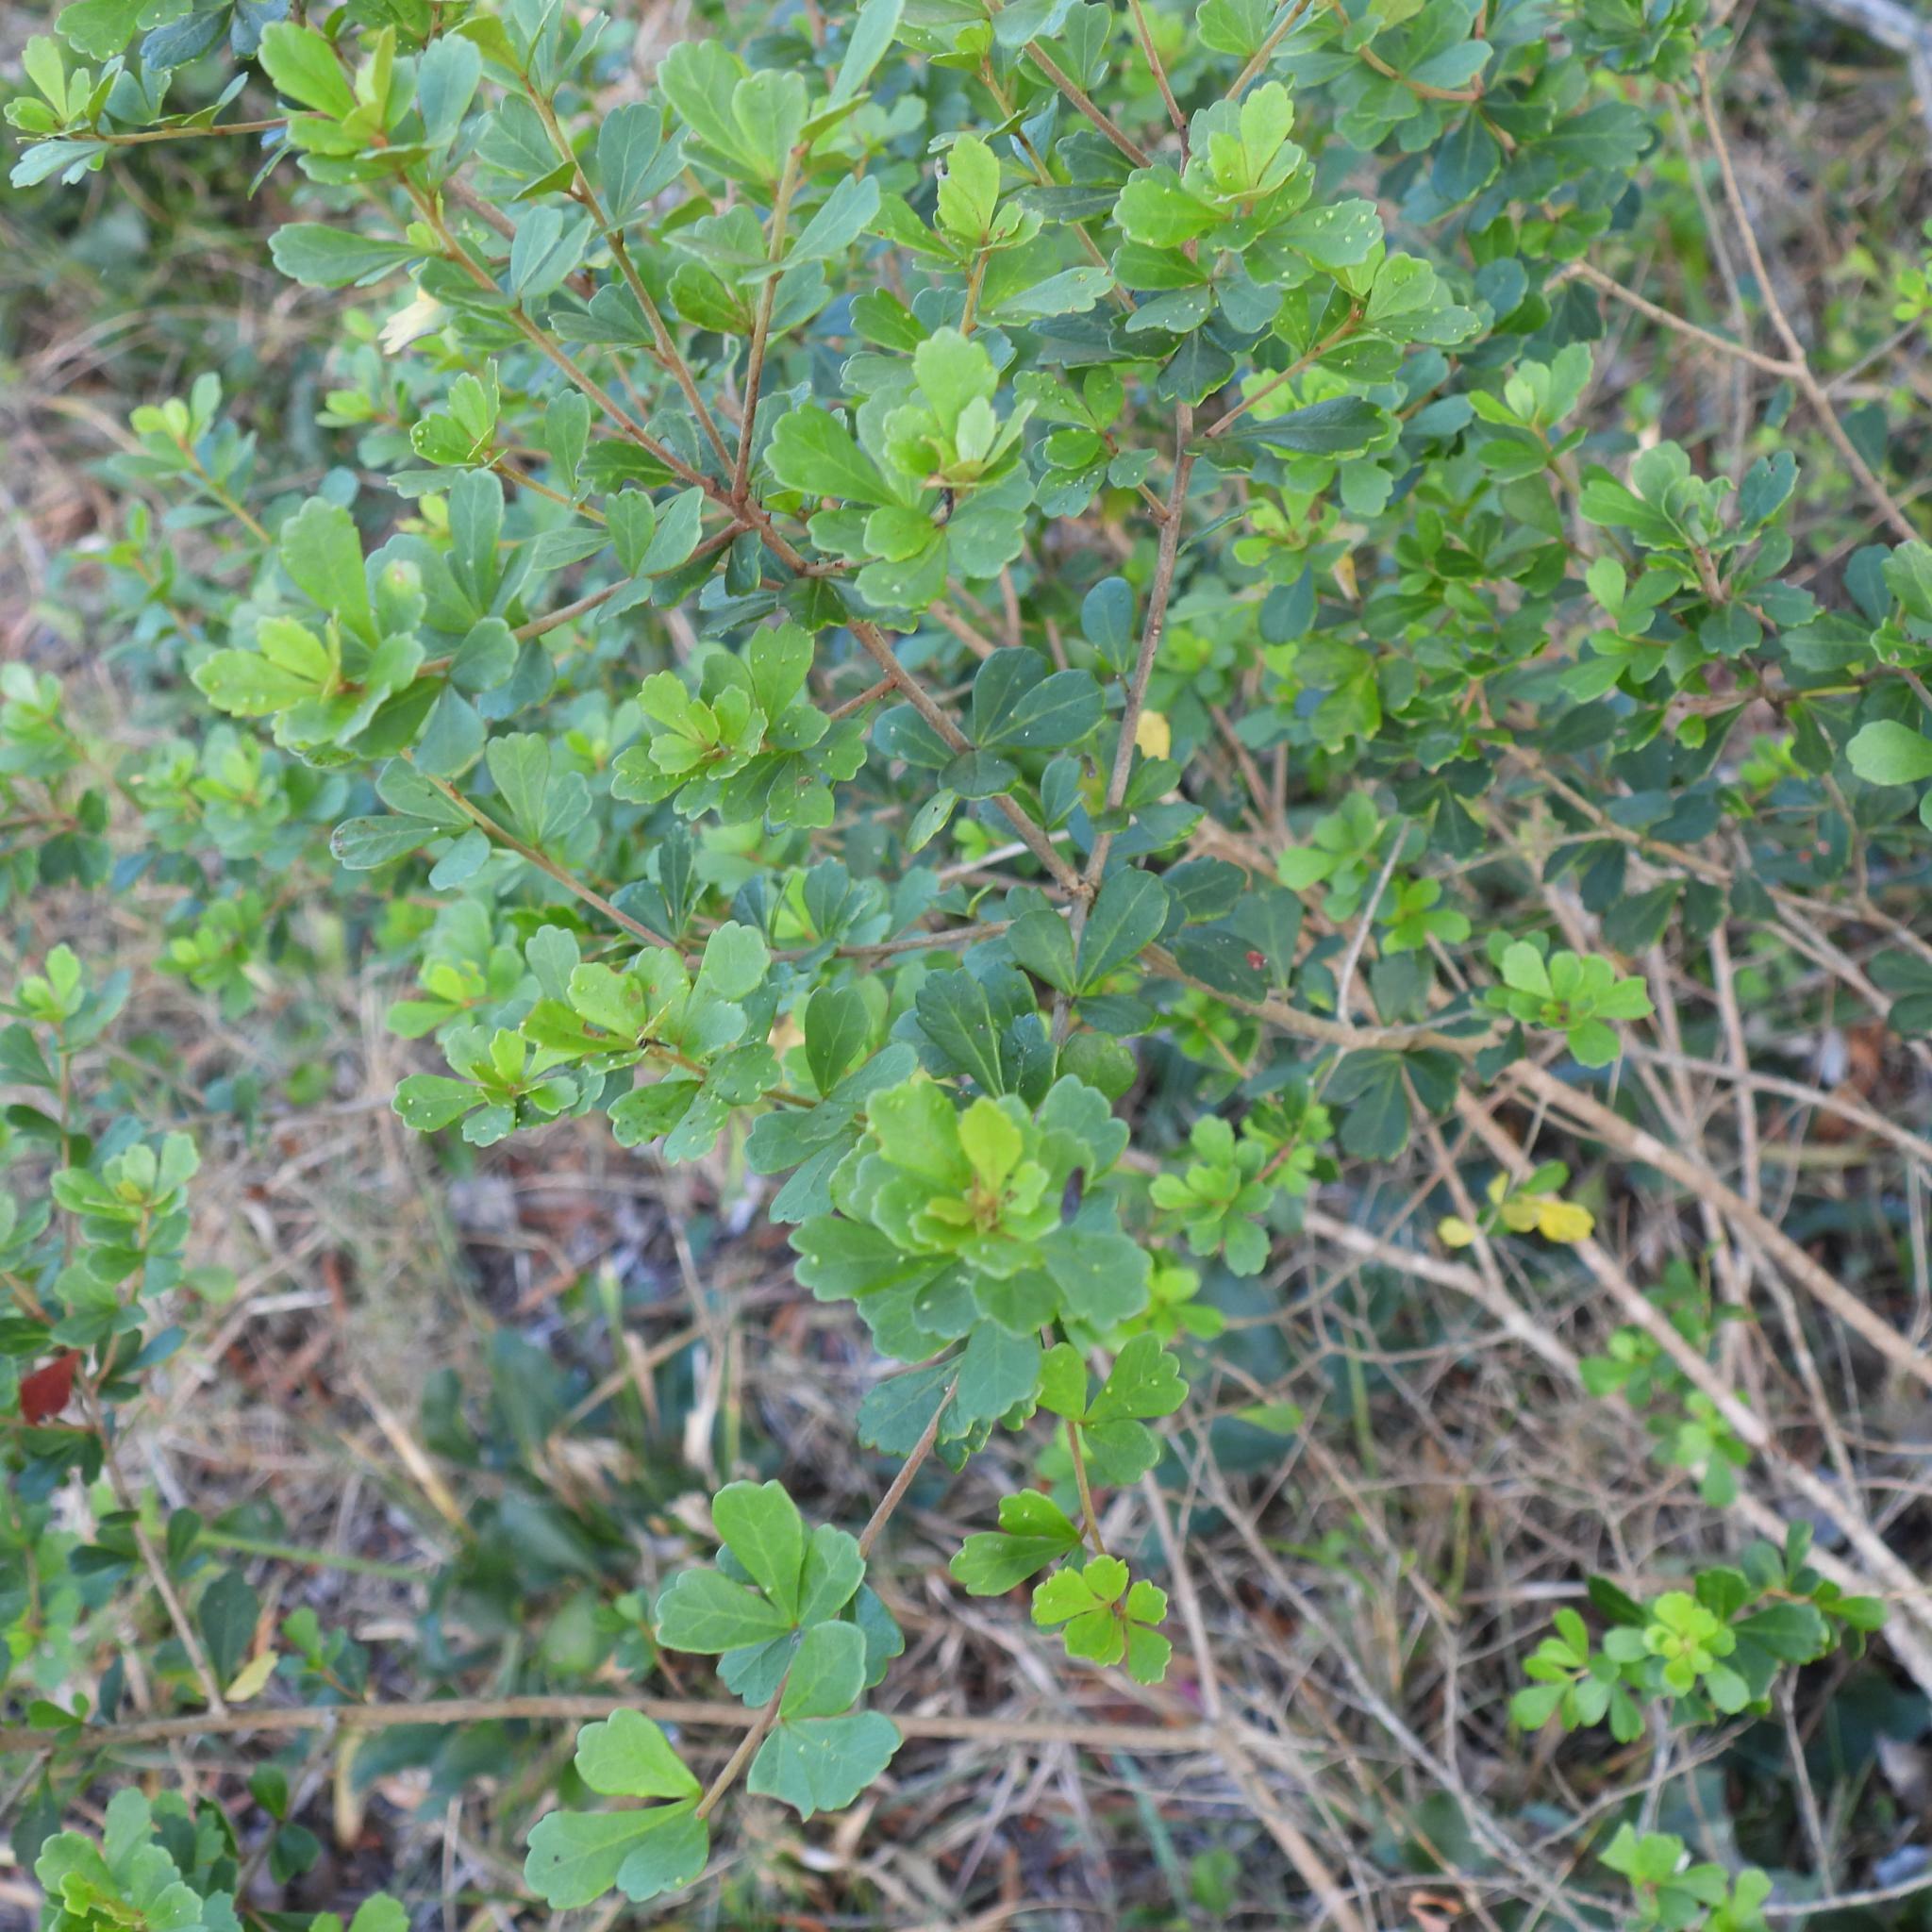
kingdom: Plantae
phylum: Tracheophyta
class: Magnoliopsida
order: Sapindales
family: Anacardiaceae
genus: Searsia
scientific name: Searsia crenata
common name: Crowberry
